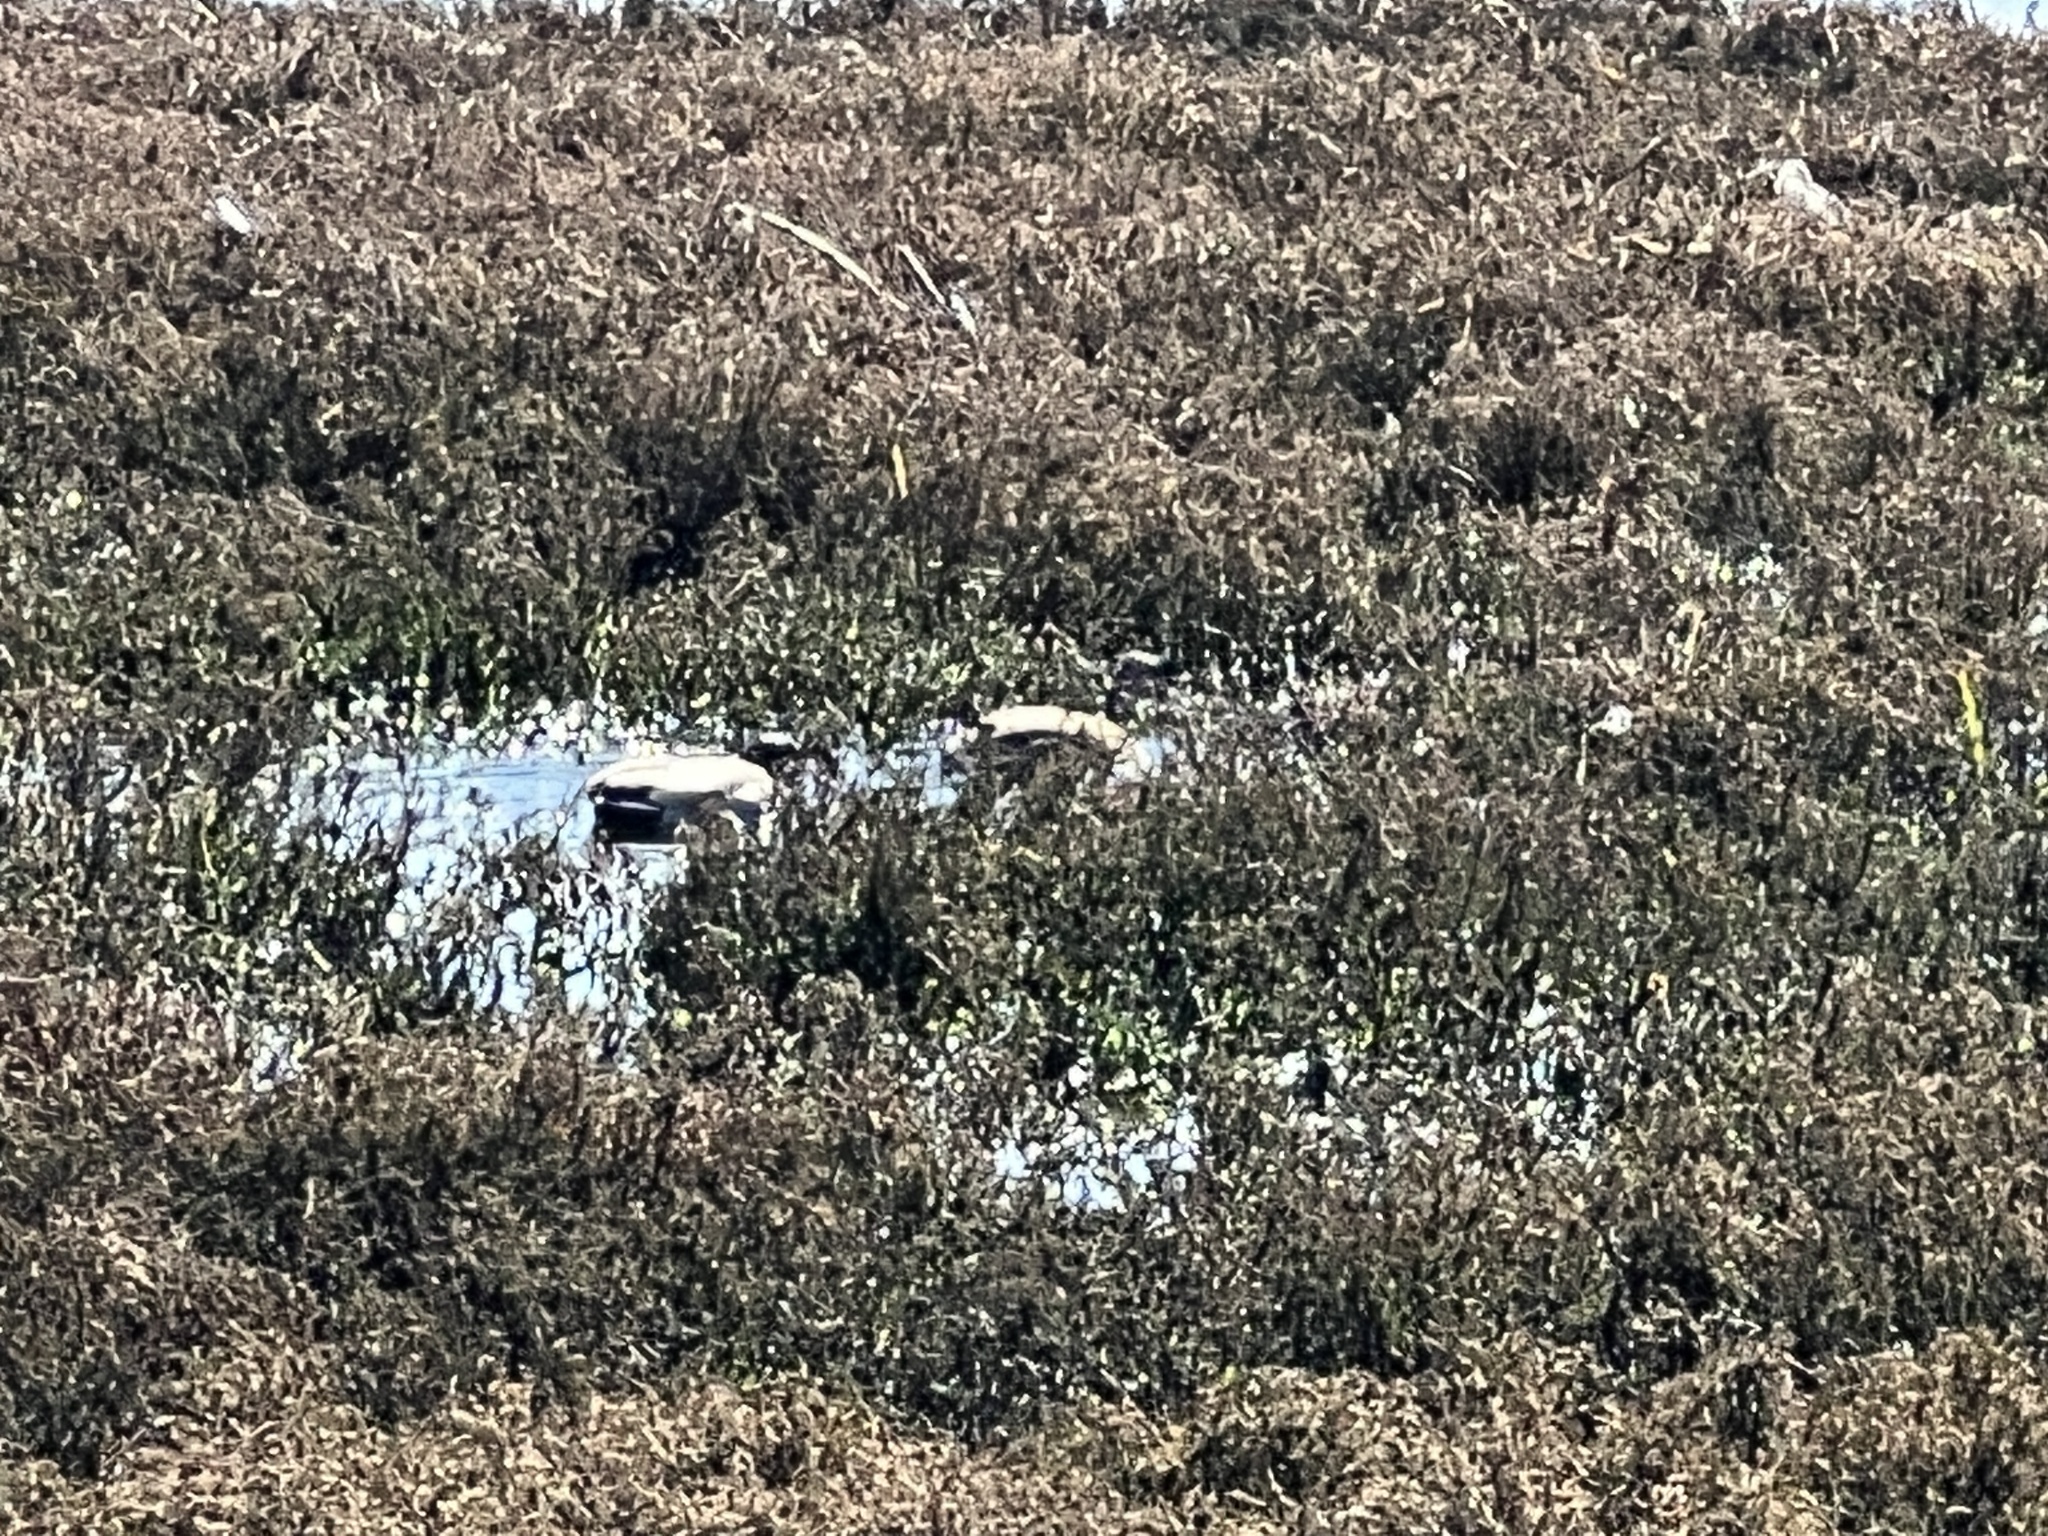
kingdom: Animalia
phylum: Chordata
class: Aves
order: Anseriformes
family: Anatidae
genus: Anas
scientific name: Anas platyrhynchos
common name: Mallard
